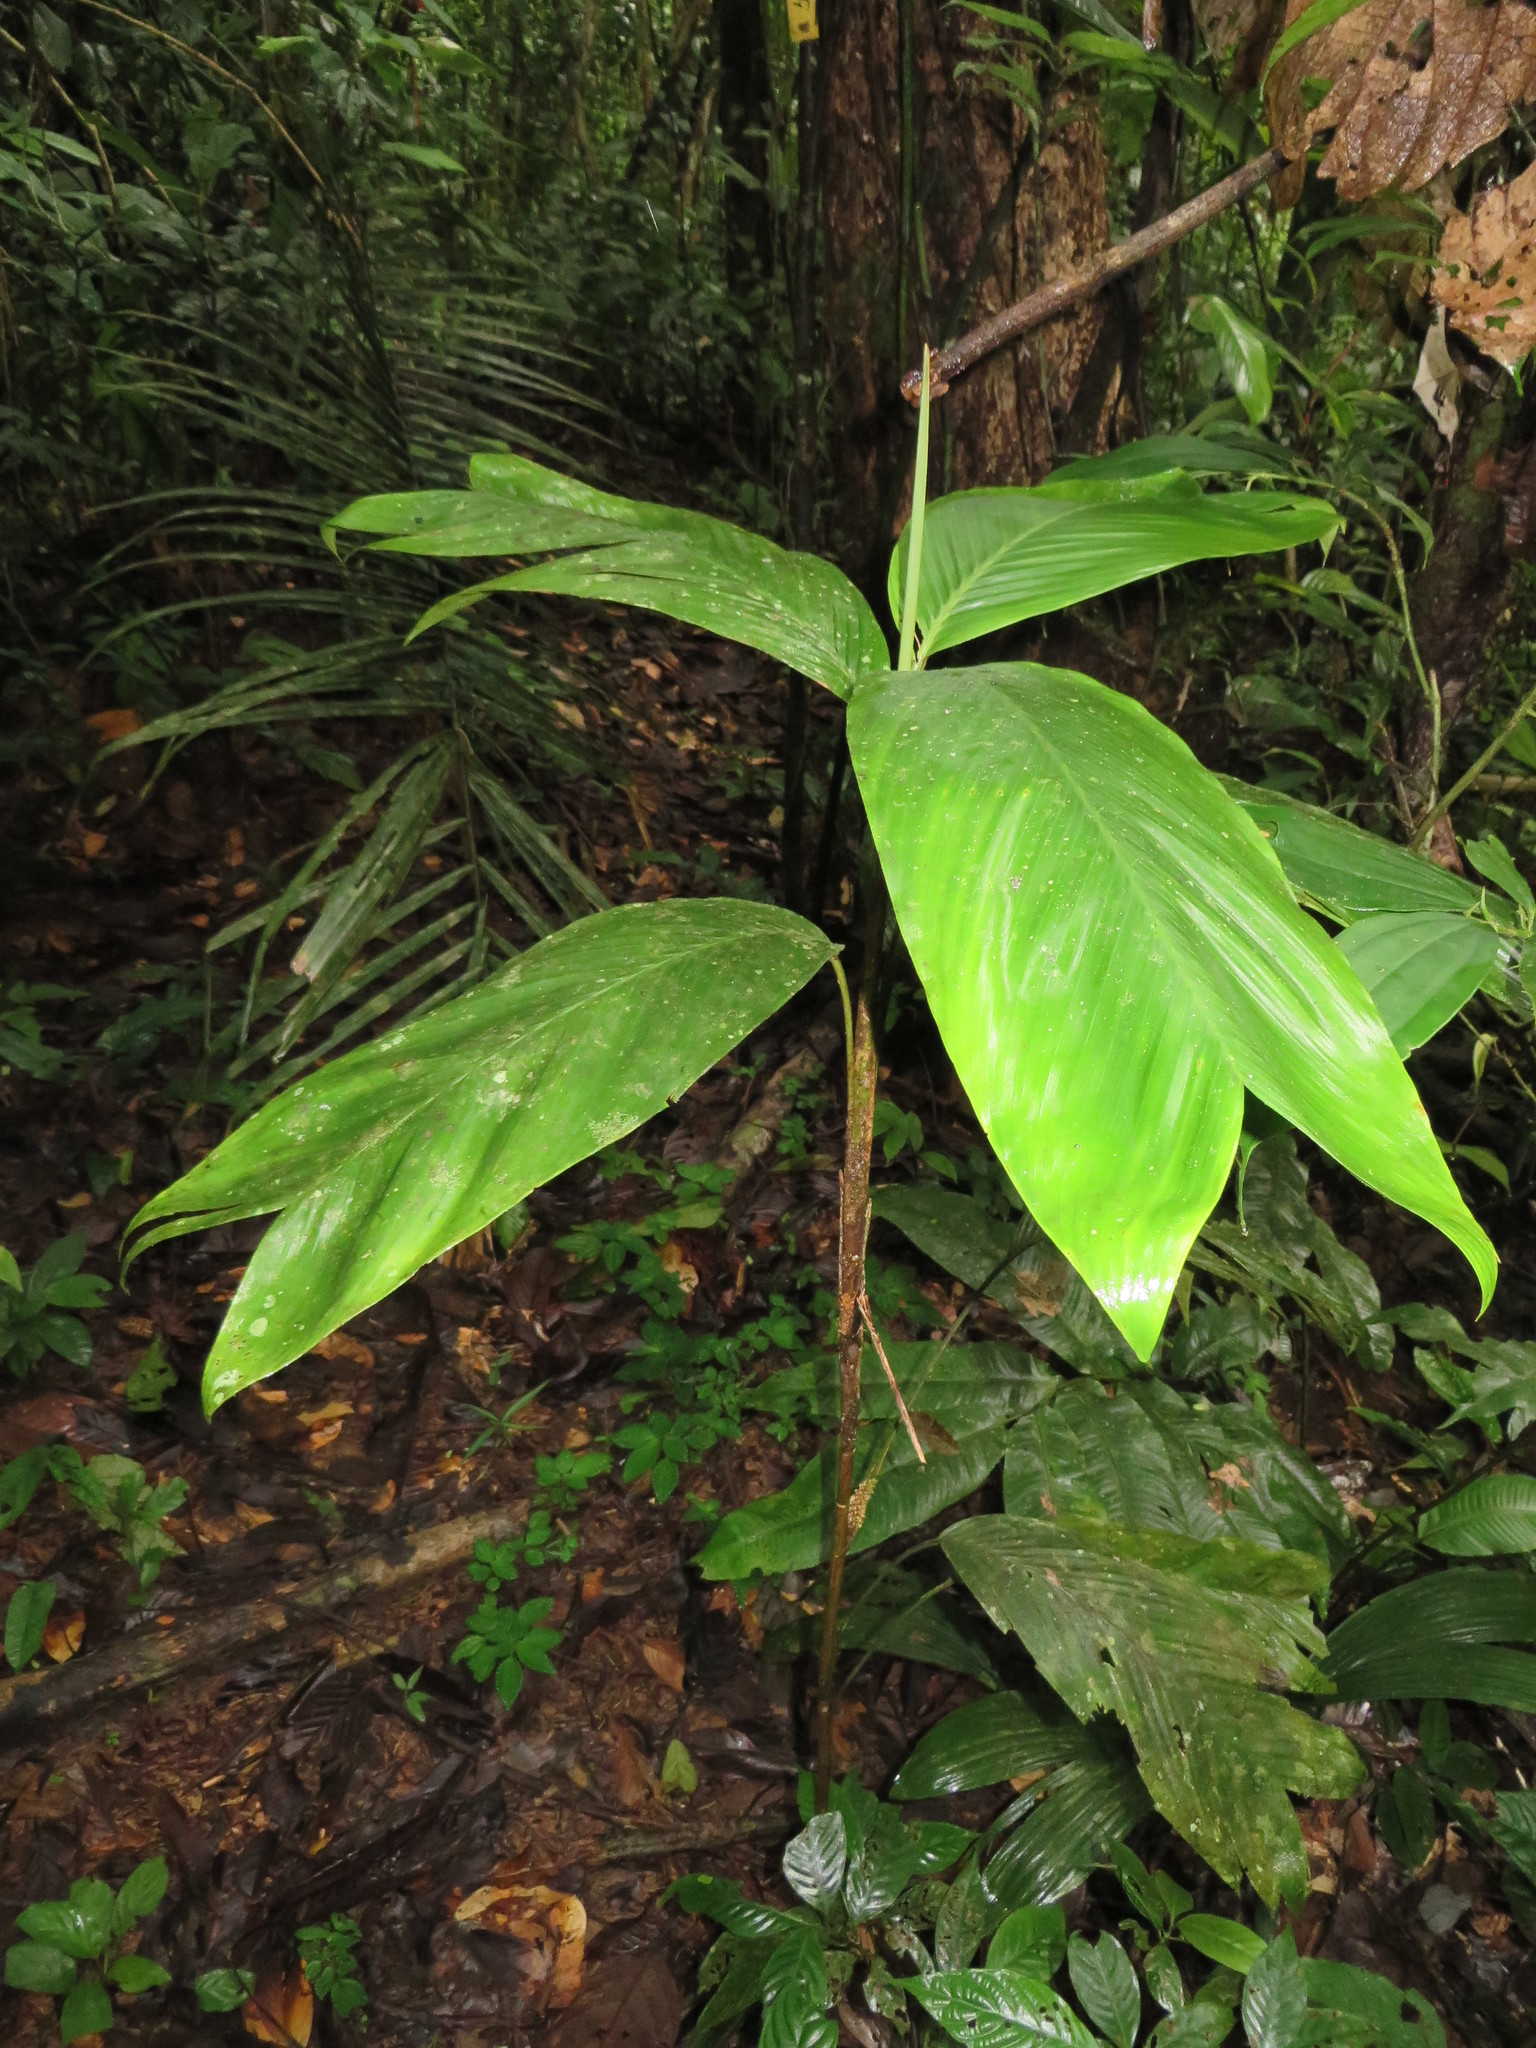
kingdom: Plantae
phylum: Tracheophyta
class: Liliopsida
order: Arecales
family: Arecaceae
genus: Geonoma
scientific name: Geonoma stricta
